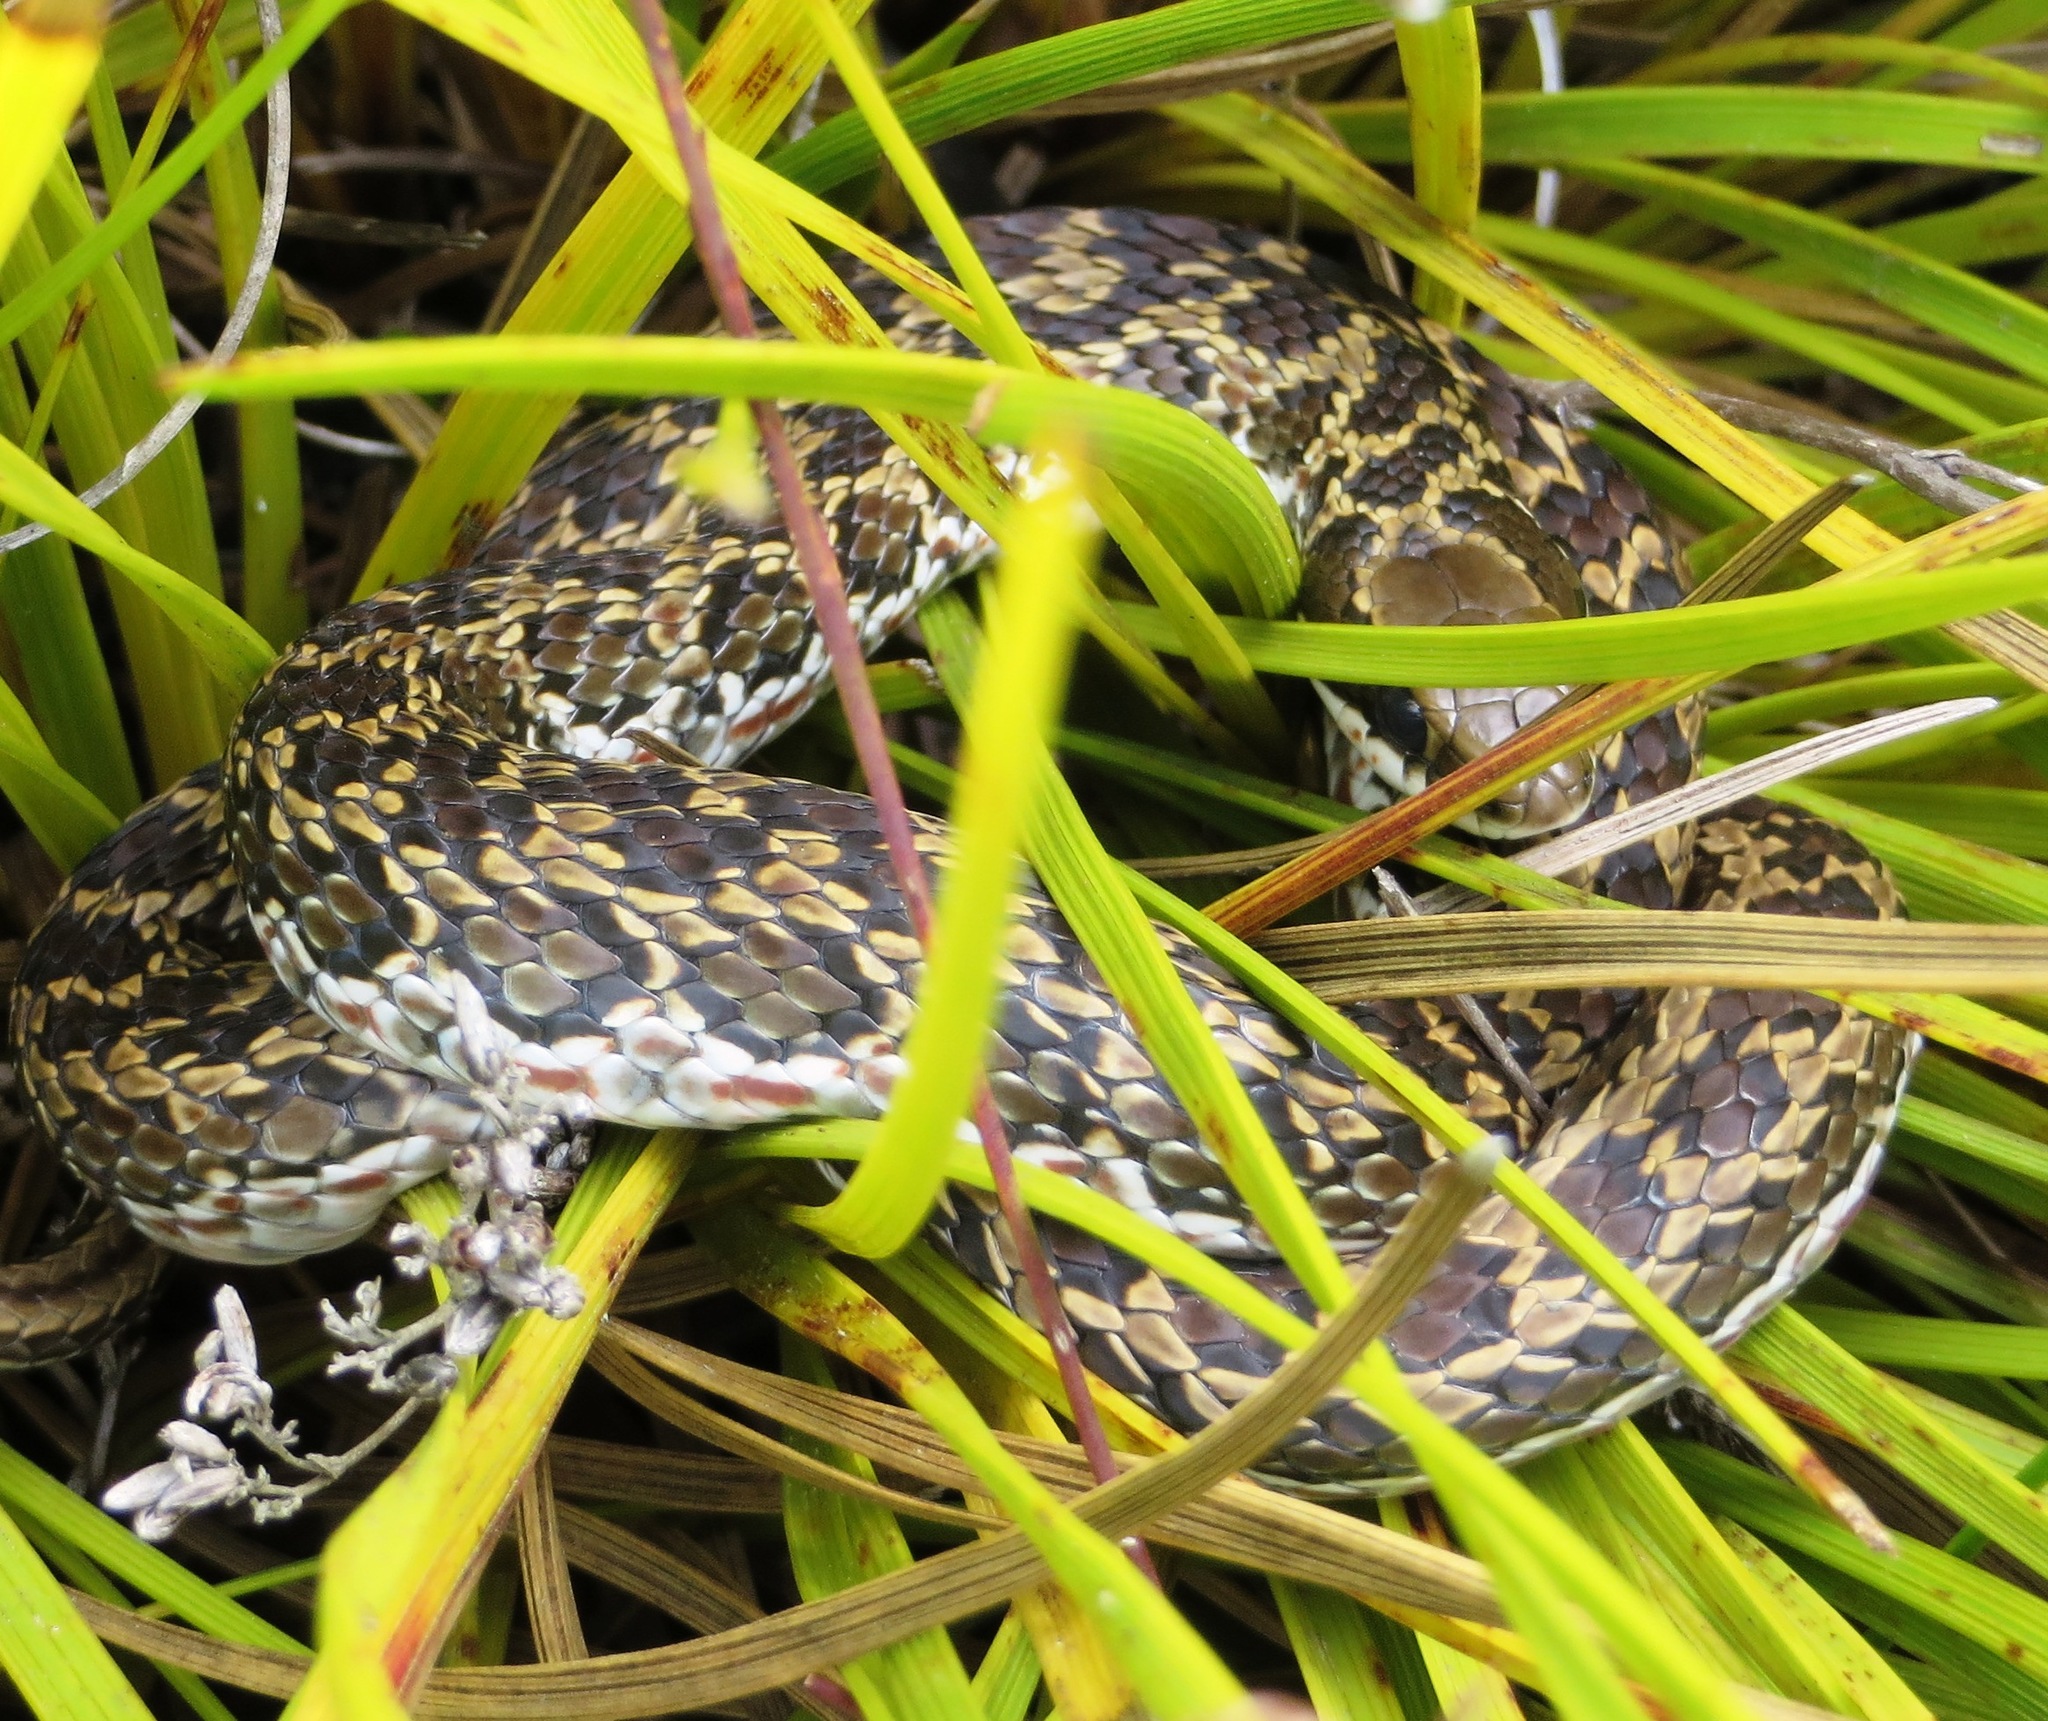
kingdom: Animalia
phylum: Chordata
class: Squamata
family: Psammophiidae
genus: Psammophylax
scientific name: Psammophylax rhombeatus
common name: Rhombic skaapsteker
